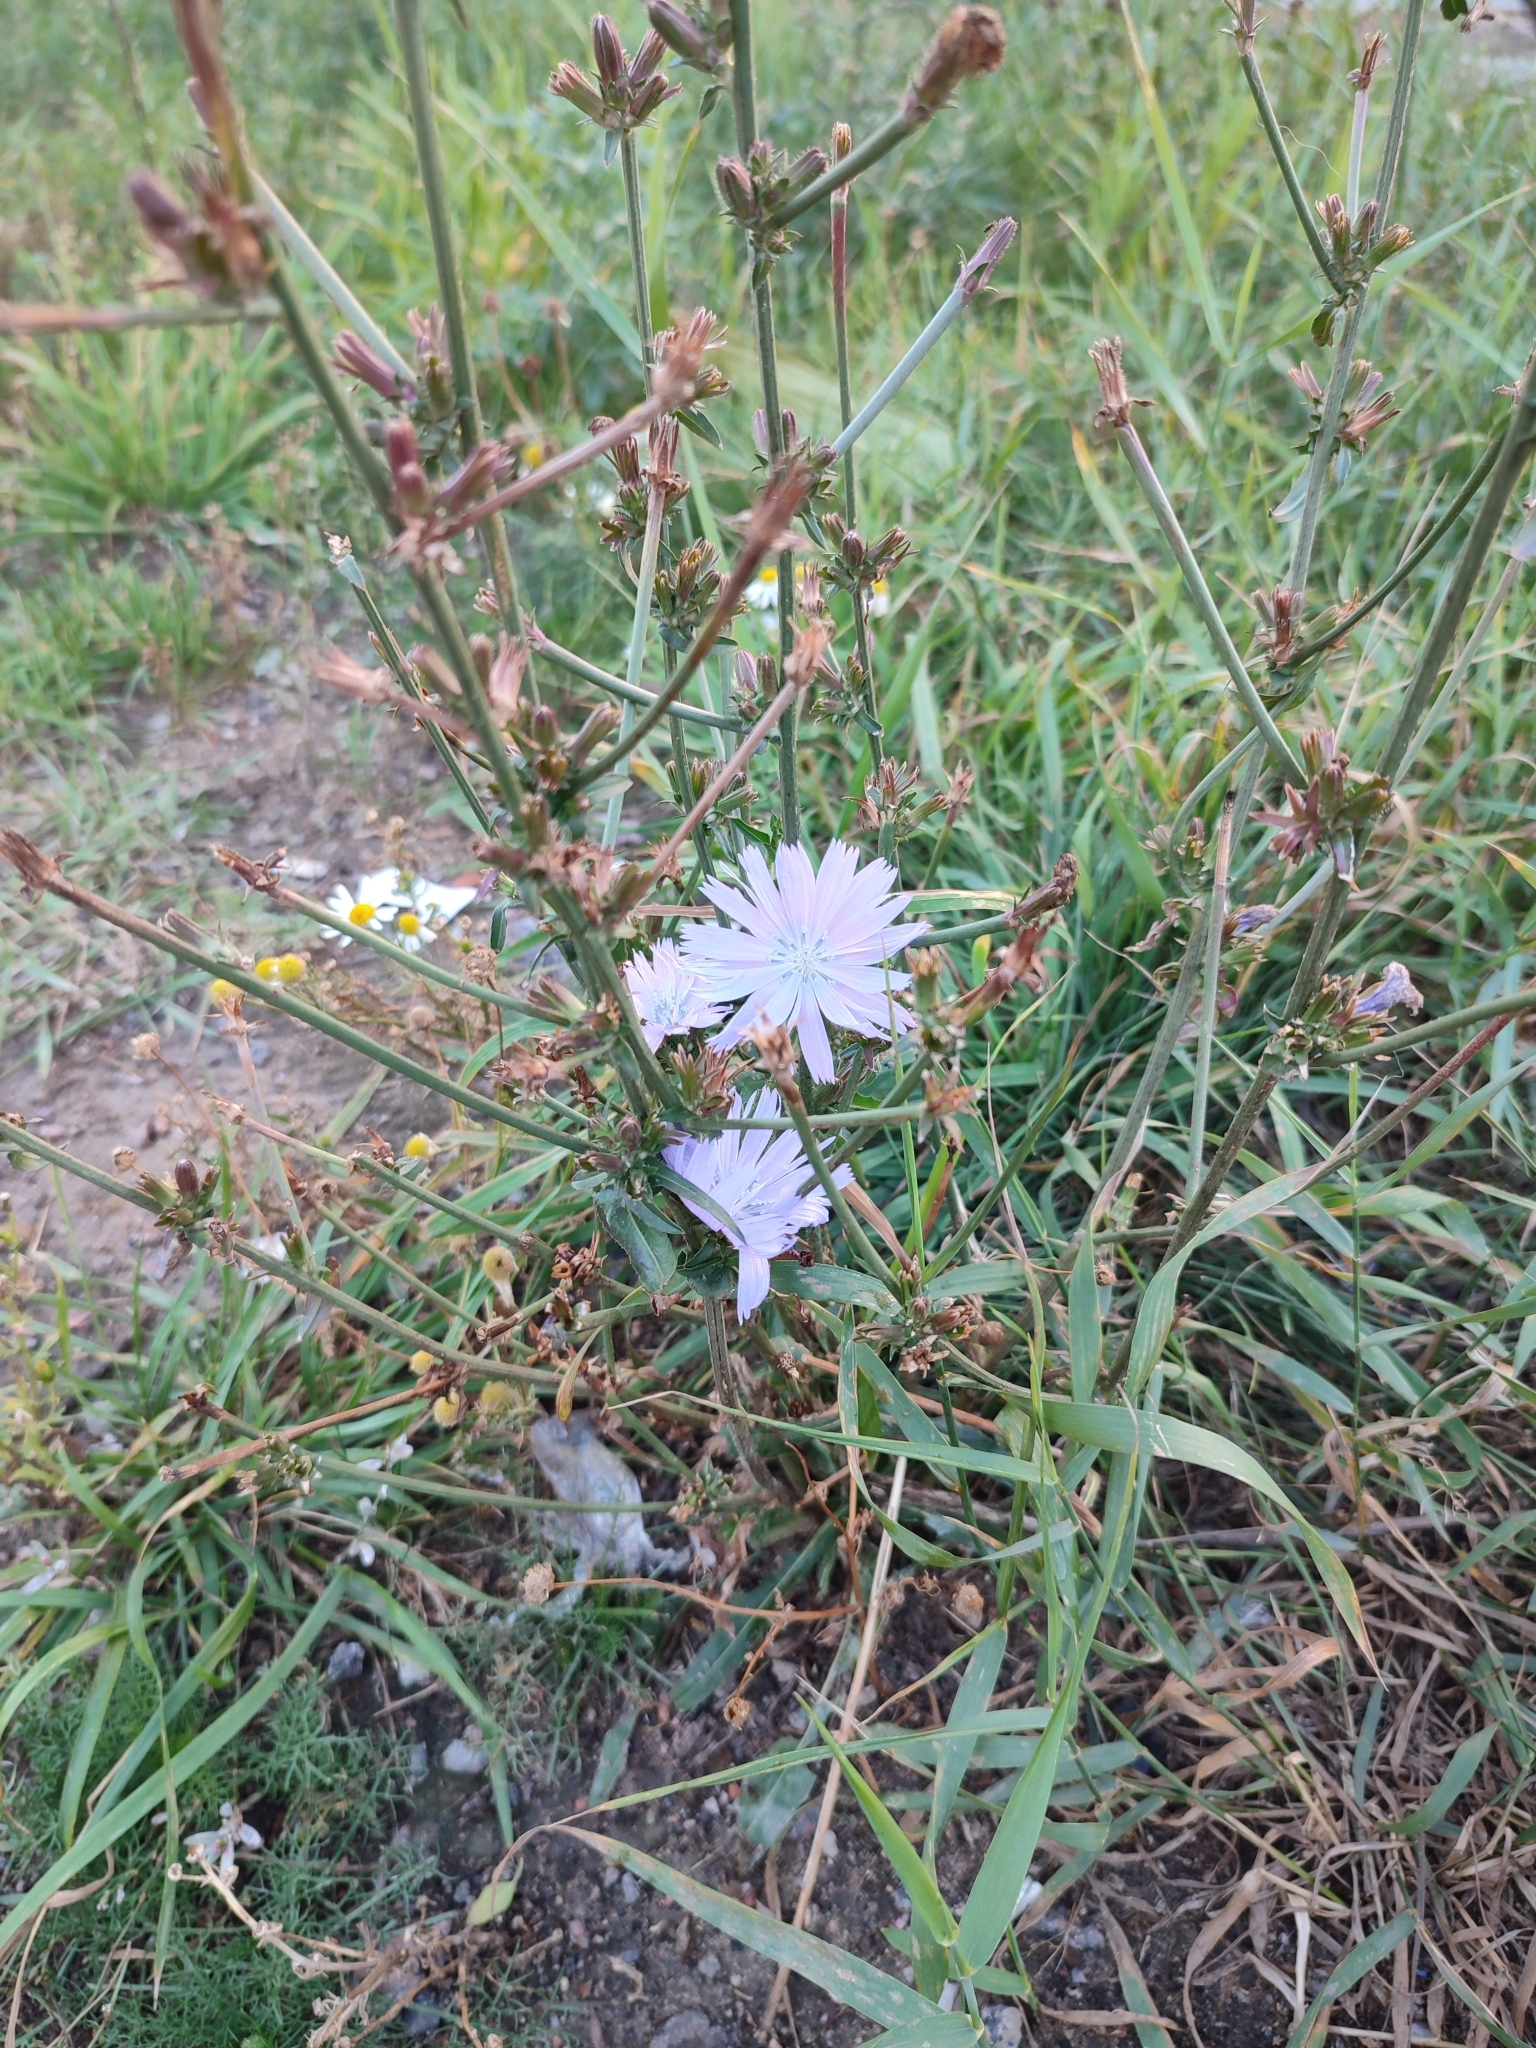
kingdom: Plantae
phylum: Tracheophyta
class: Magnoliopsida
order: Asterales
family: Asteraceae
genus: Cichorium
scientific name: Cichorium intybus
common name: Chicory
